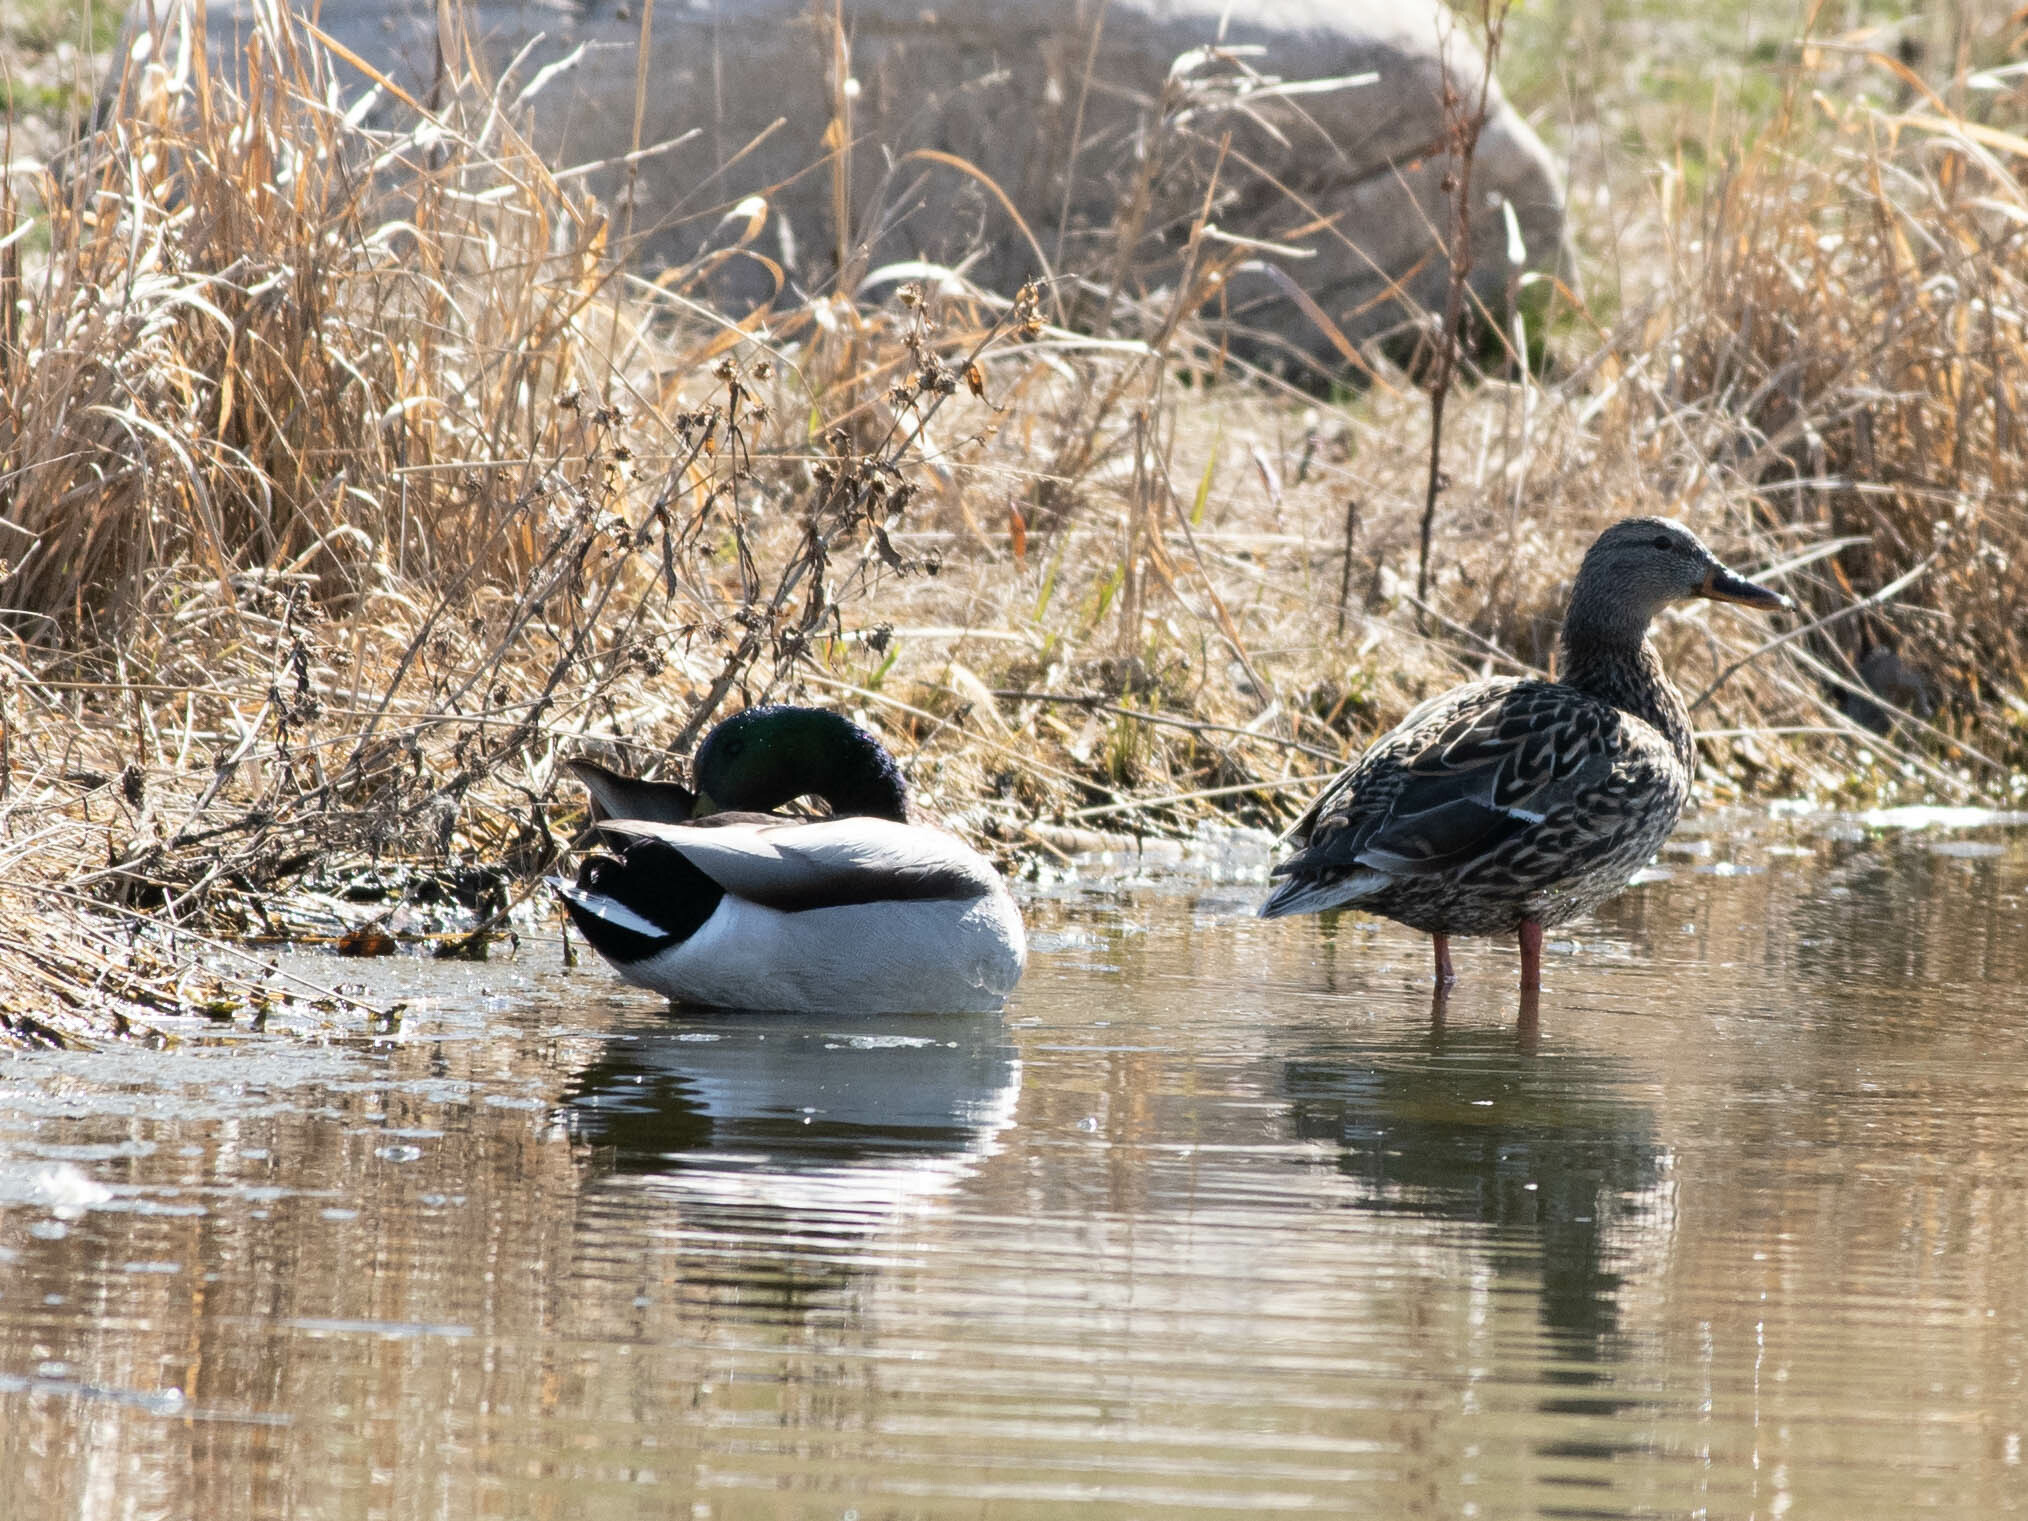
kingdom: Animalia
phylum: Chordata
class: Aves
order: Anseriformes
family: Anatidae
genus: Anas
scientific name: Anas platyrhynchos
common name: Mallard
